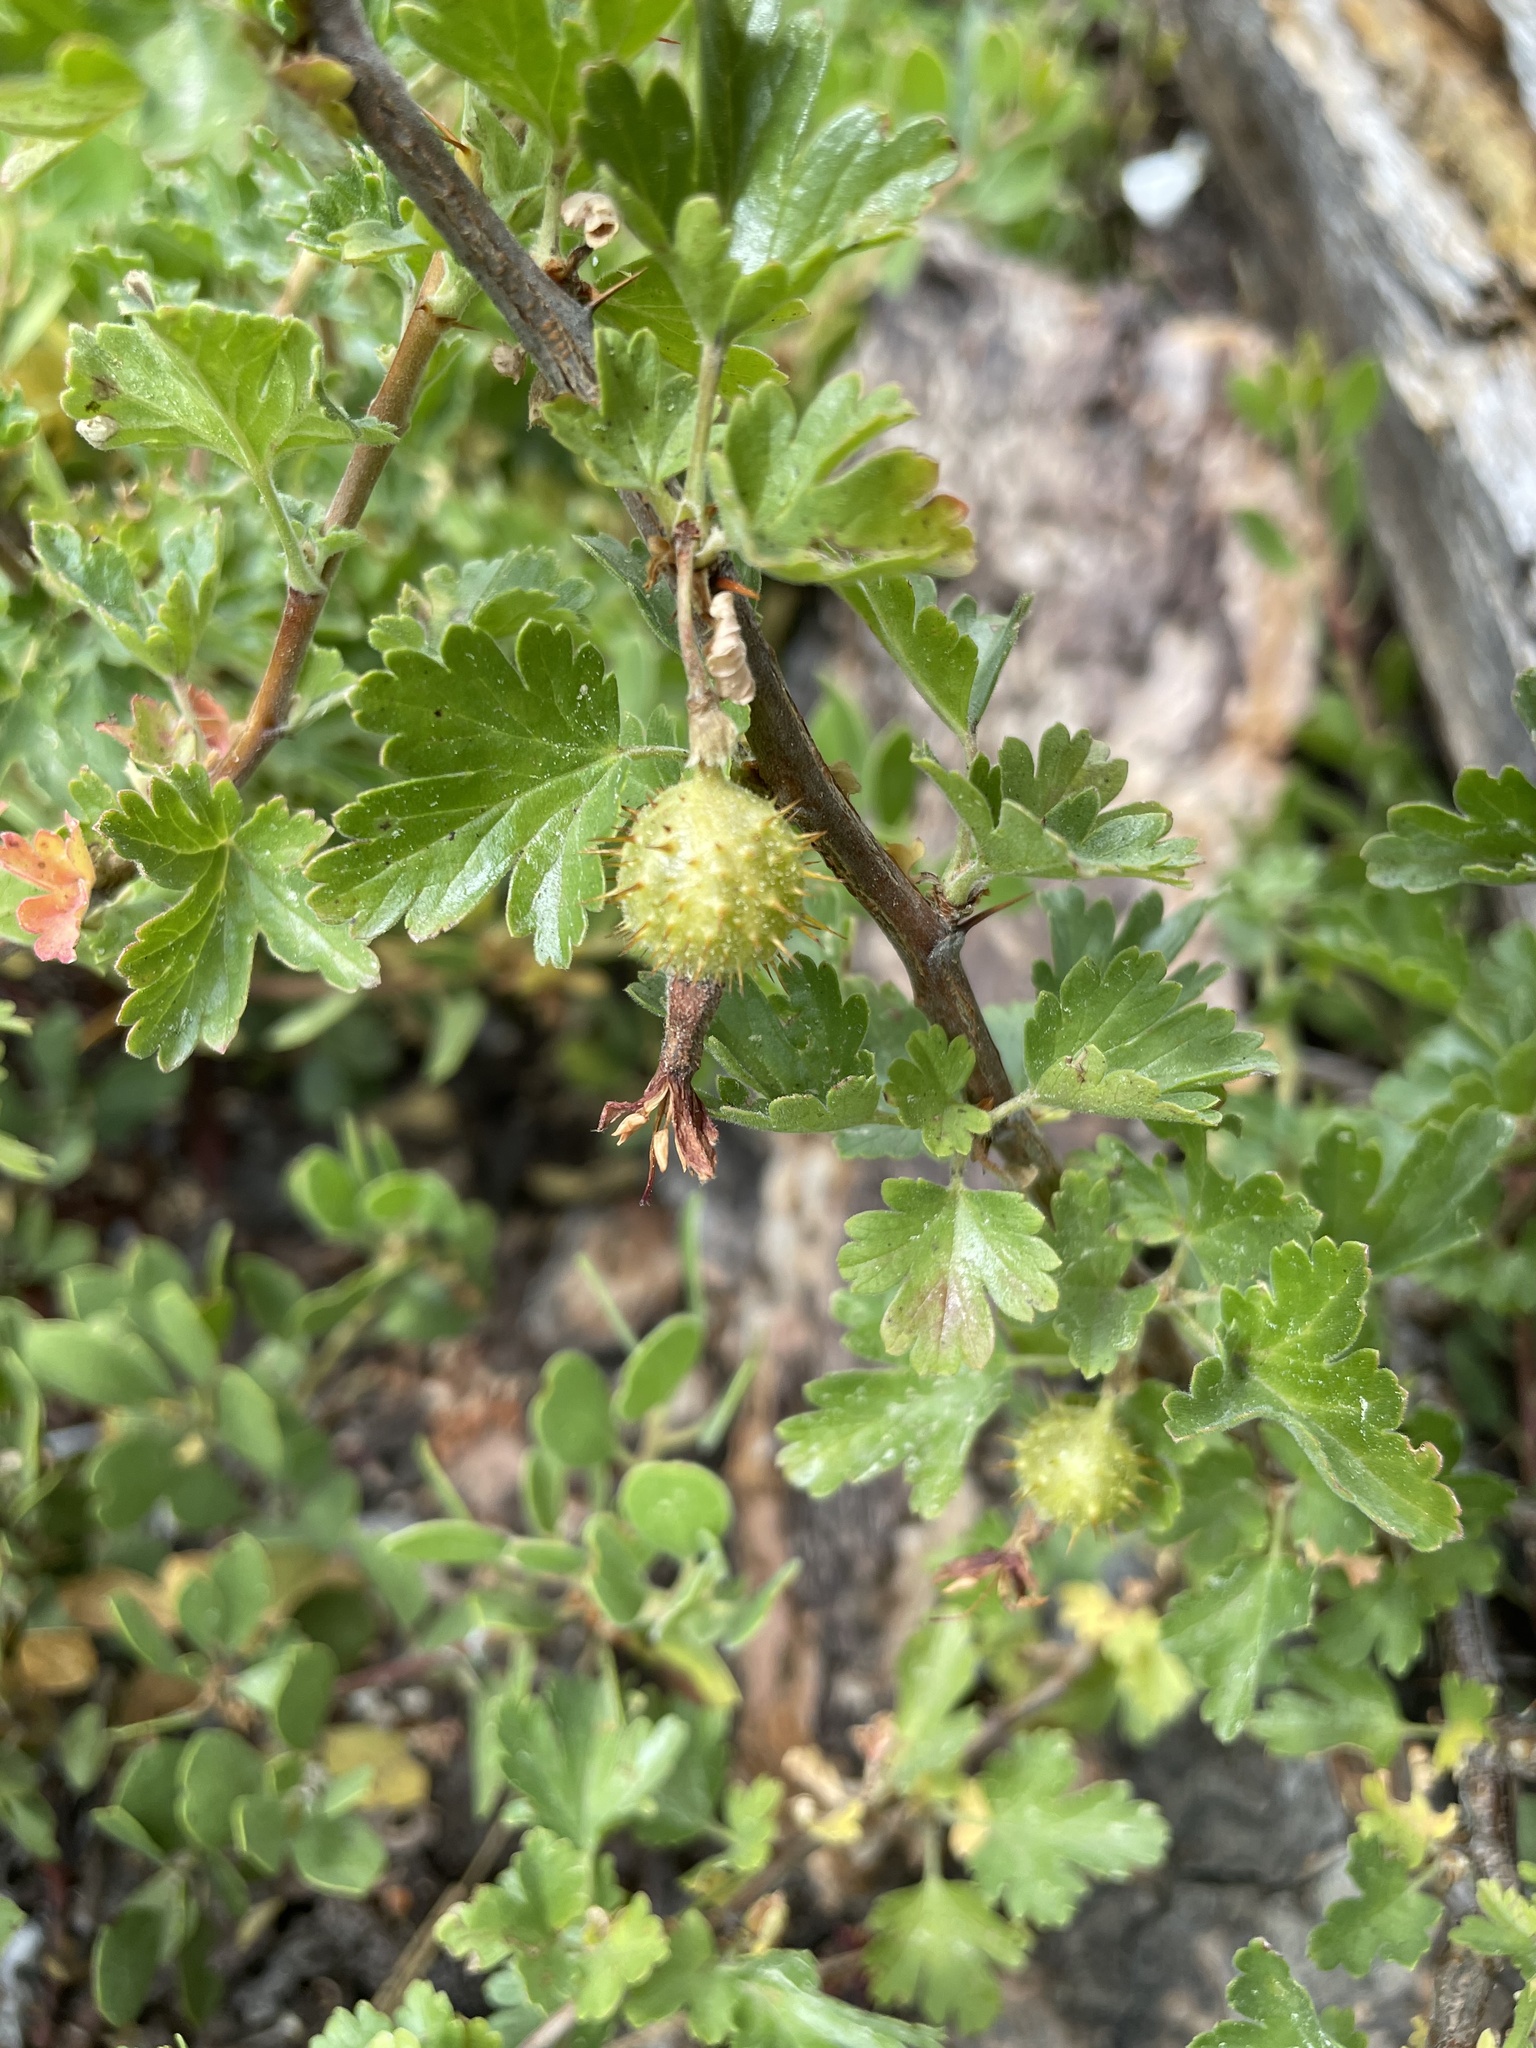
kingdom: Plantae
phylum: Tracheophyta
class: Magnoliopsida
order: Saxifragales
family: Grossulariaceae
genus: Ribes
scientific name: Ribes roezlii
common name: Sierra gooseberry
